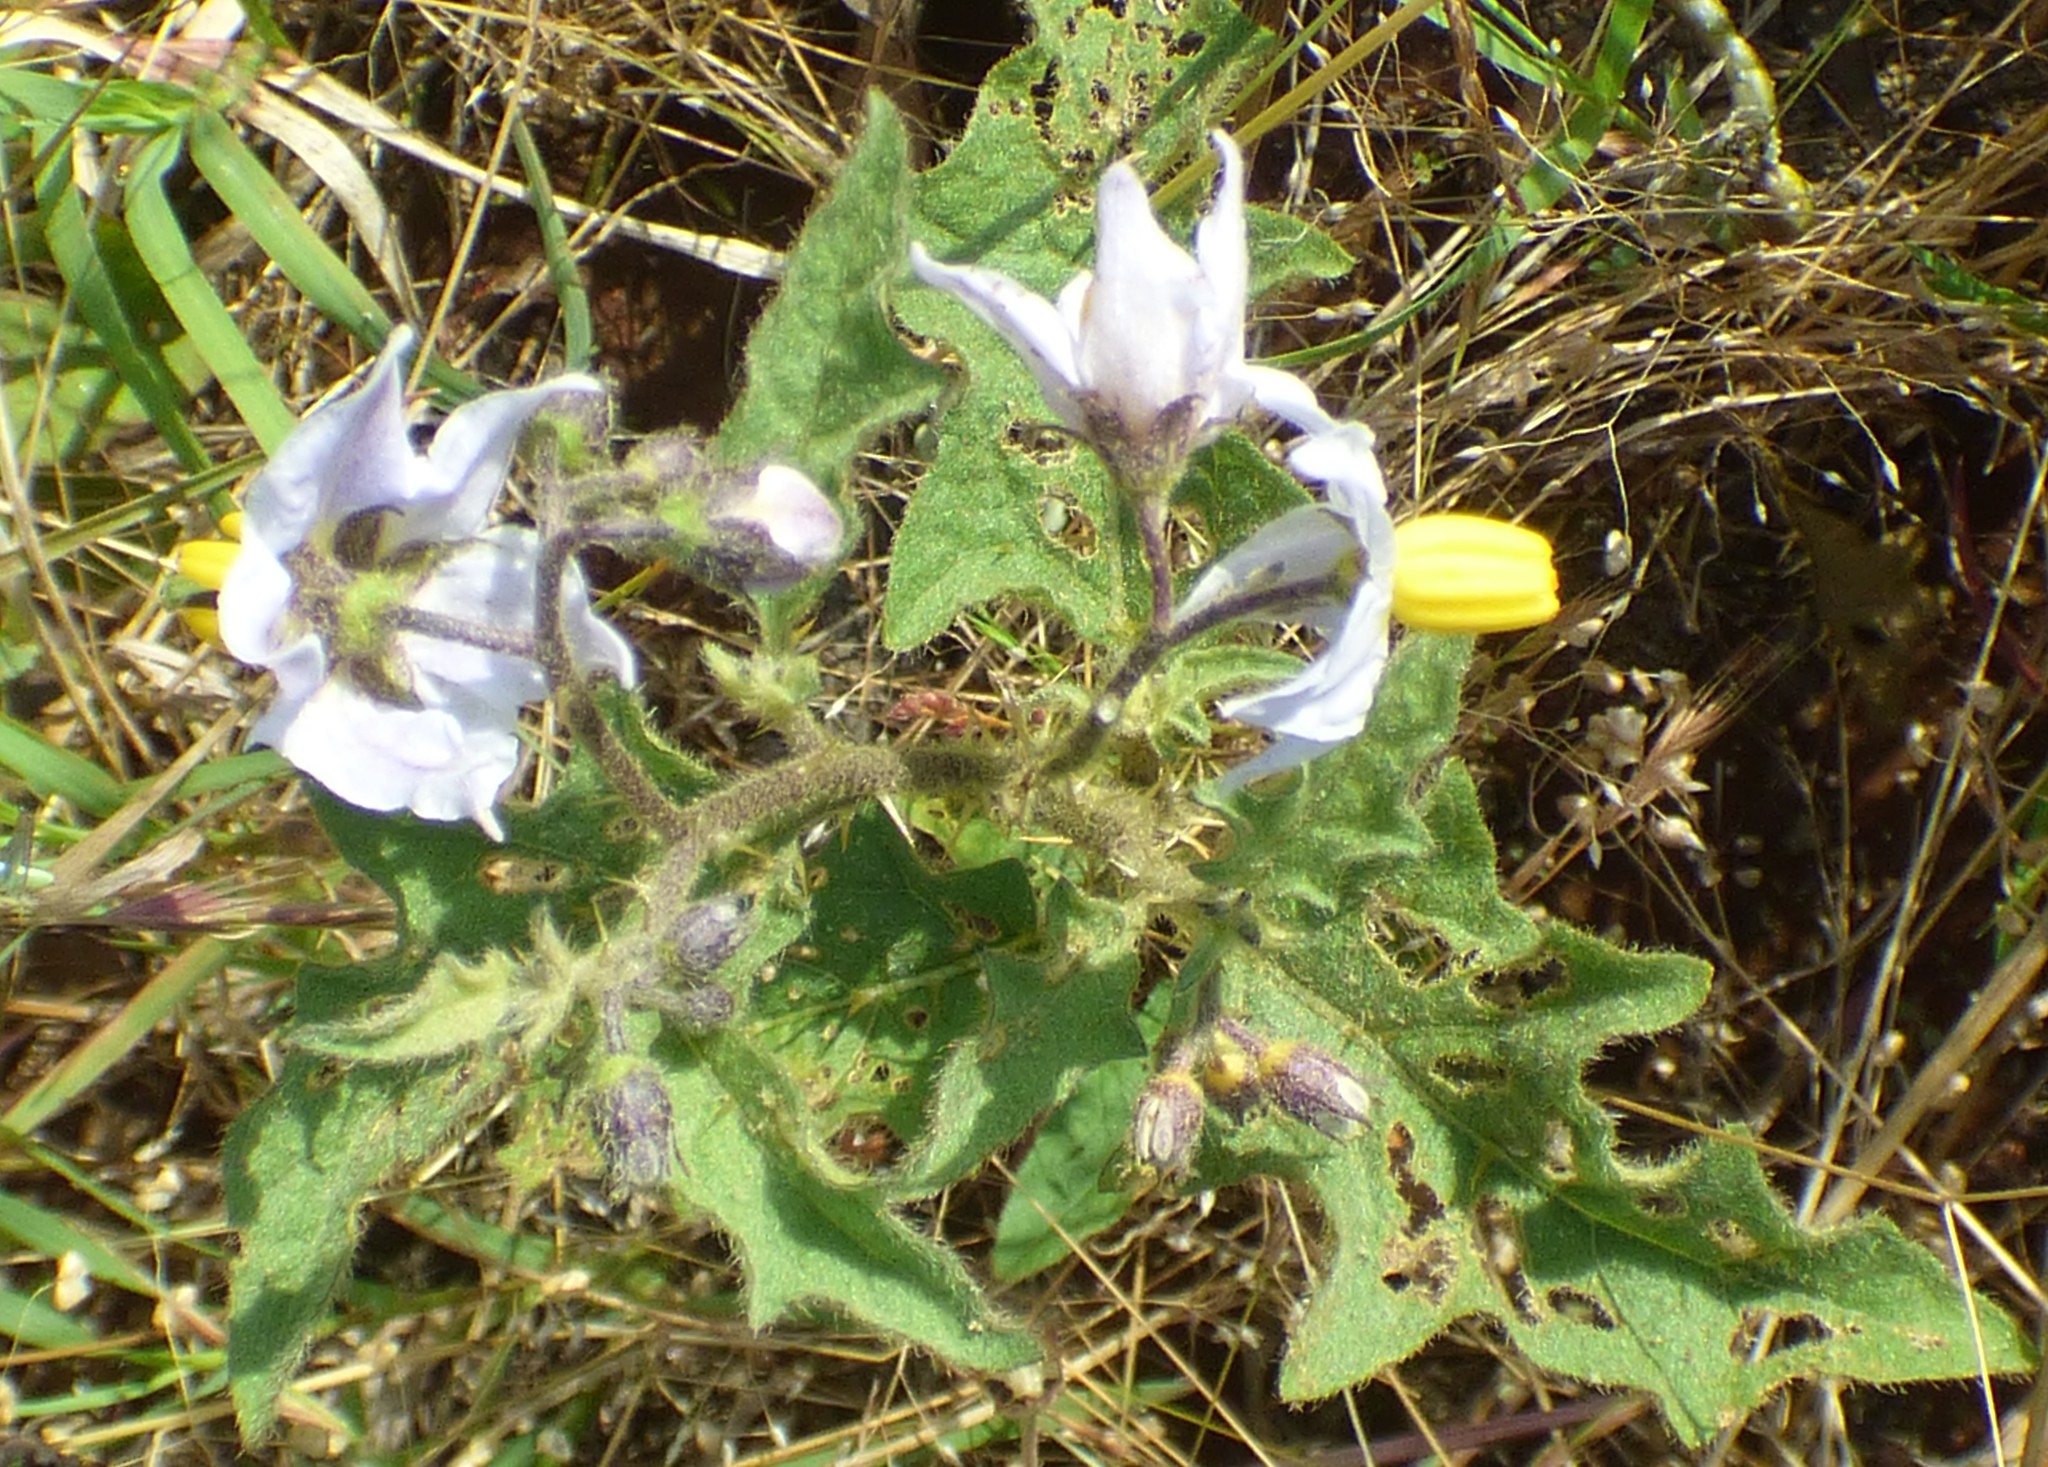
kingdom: Plantae
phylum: Tracheophyta
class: Magnoliopsida
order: Solanales
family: Solanaceae
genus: Solanum
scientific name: Solanum carolinense
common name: Horse-nettle
